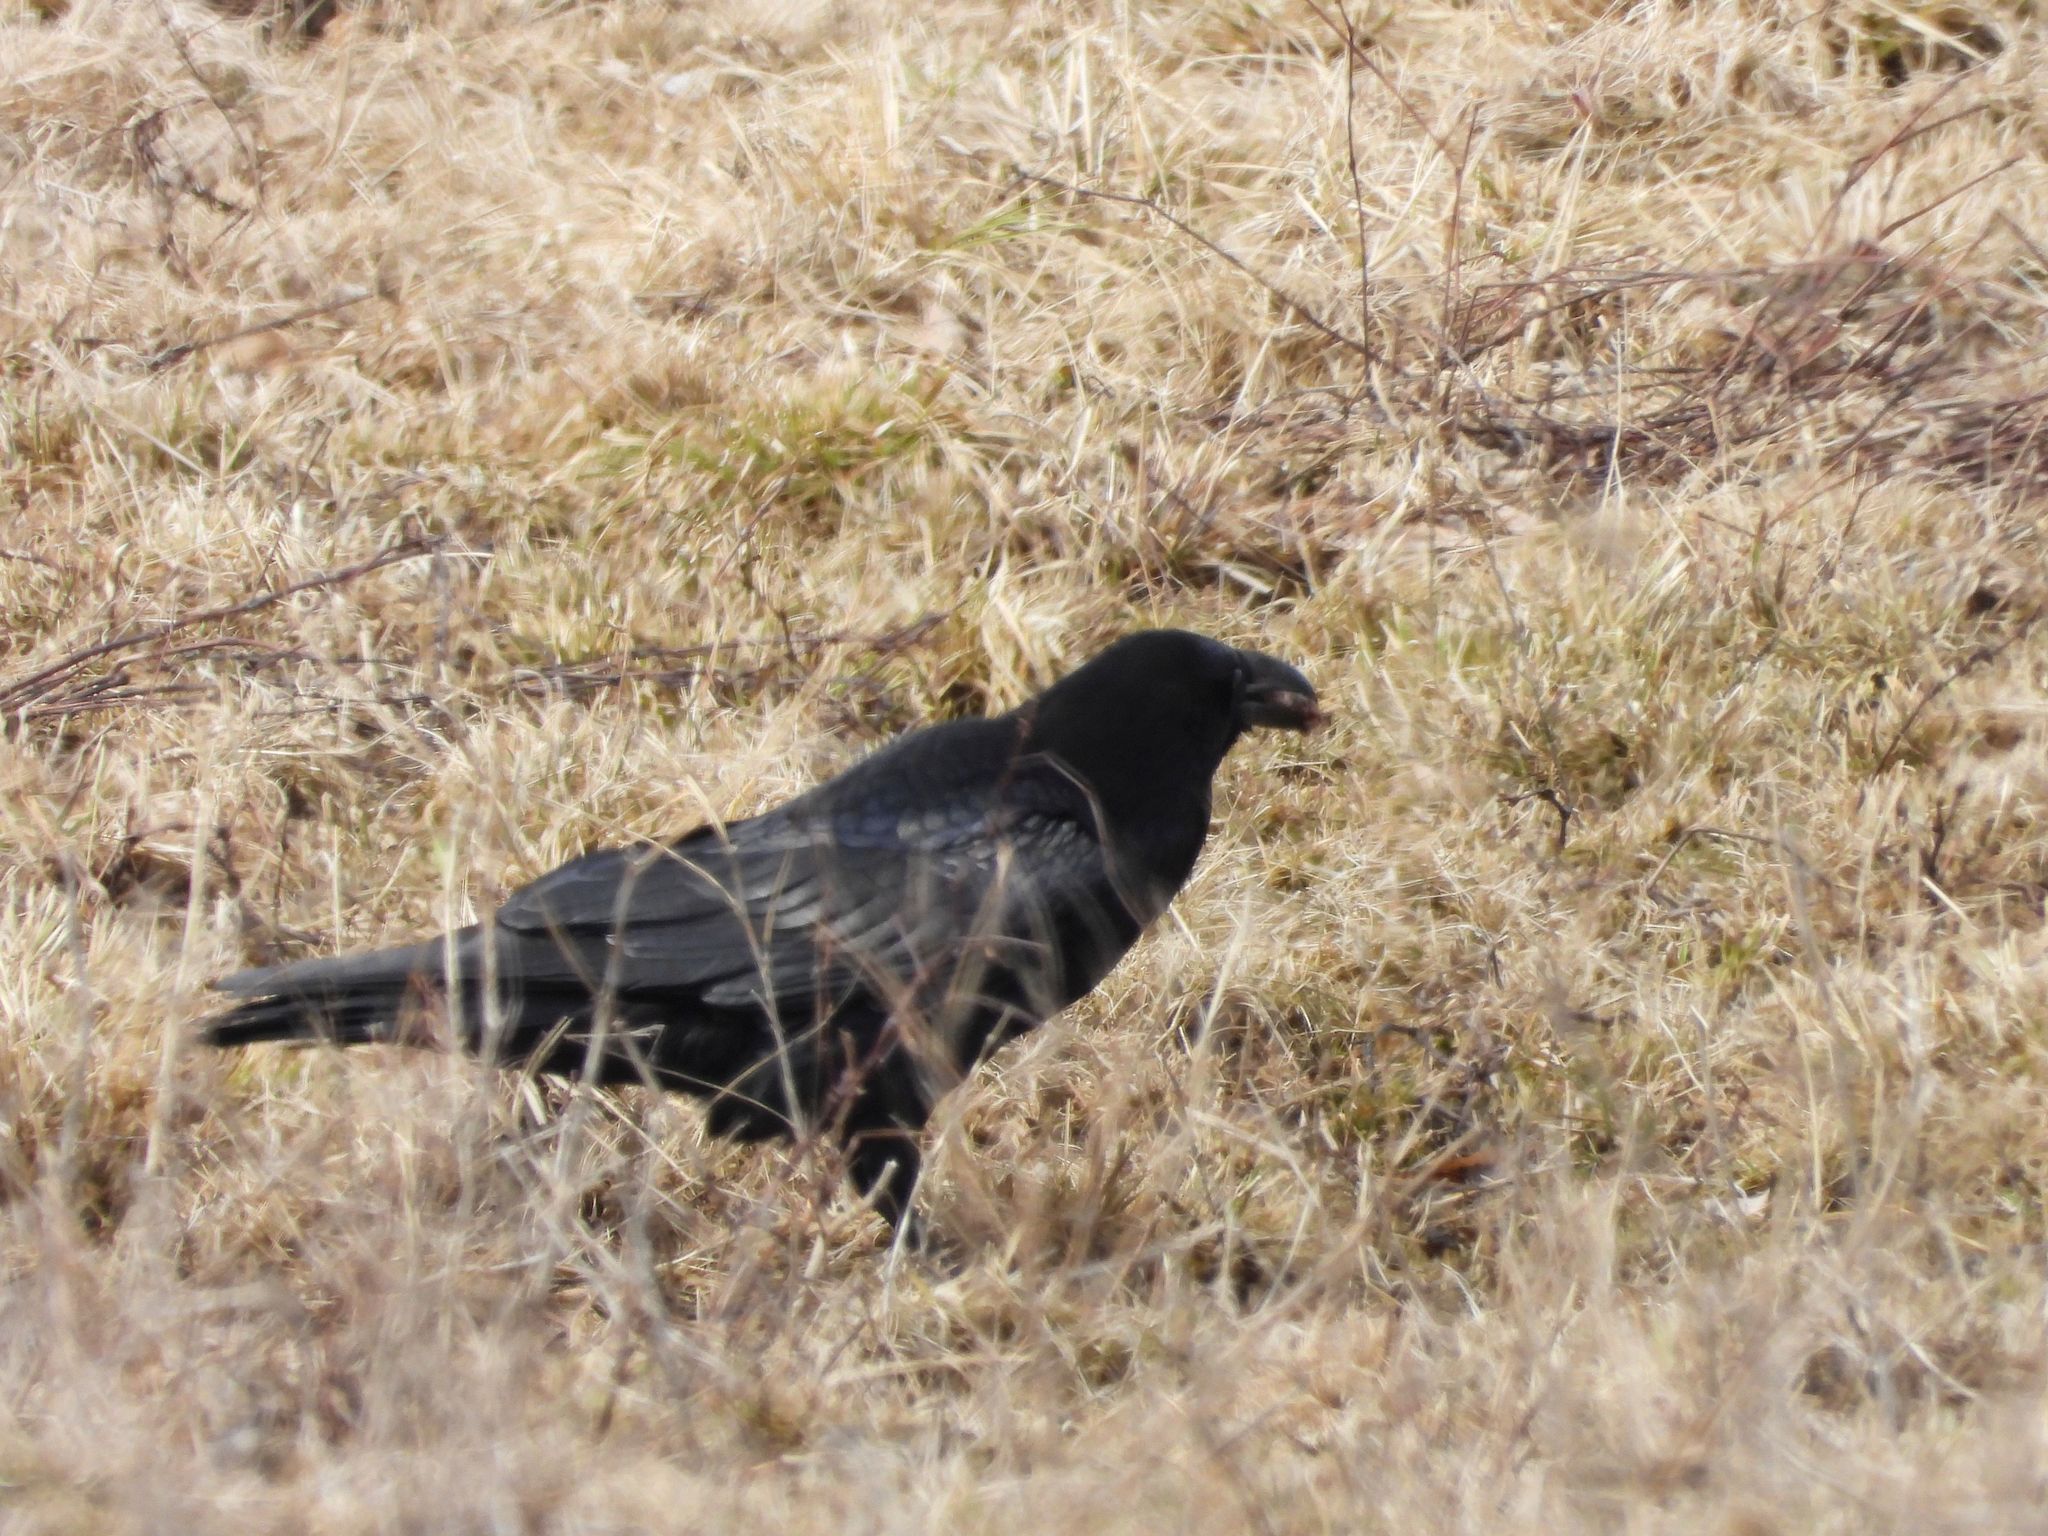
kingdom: Animalia
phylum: Chordata
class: Aves
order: Passeriformes
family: Corvidae
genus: Corvus
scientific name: Corvus corax
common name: Common raven
